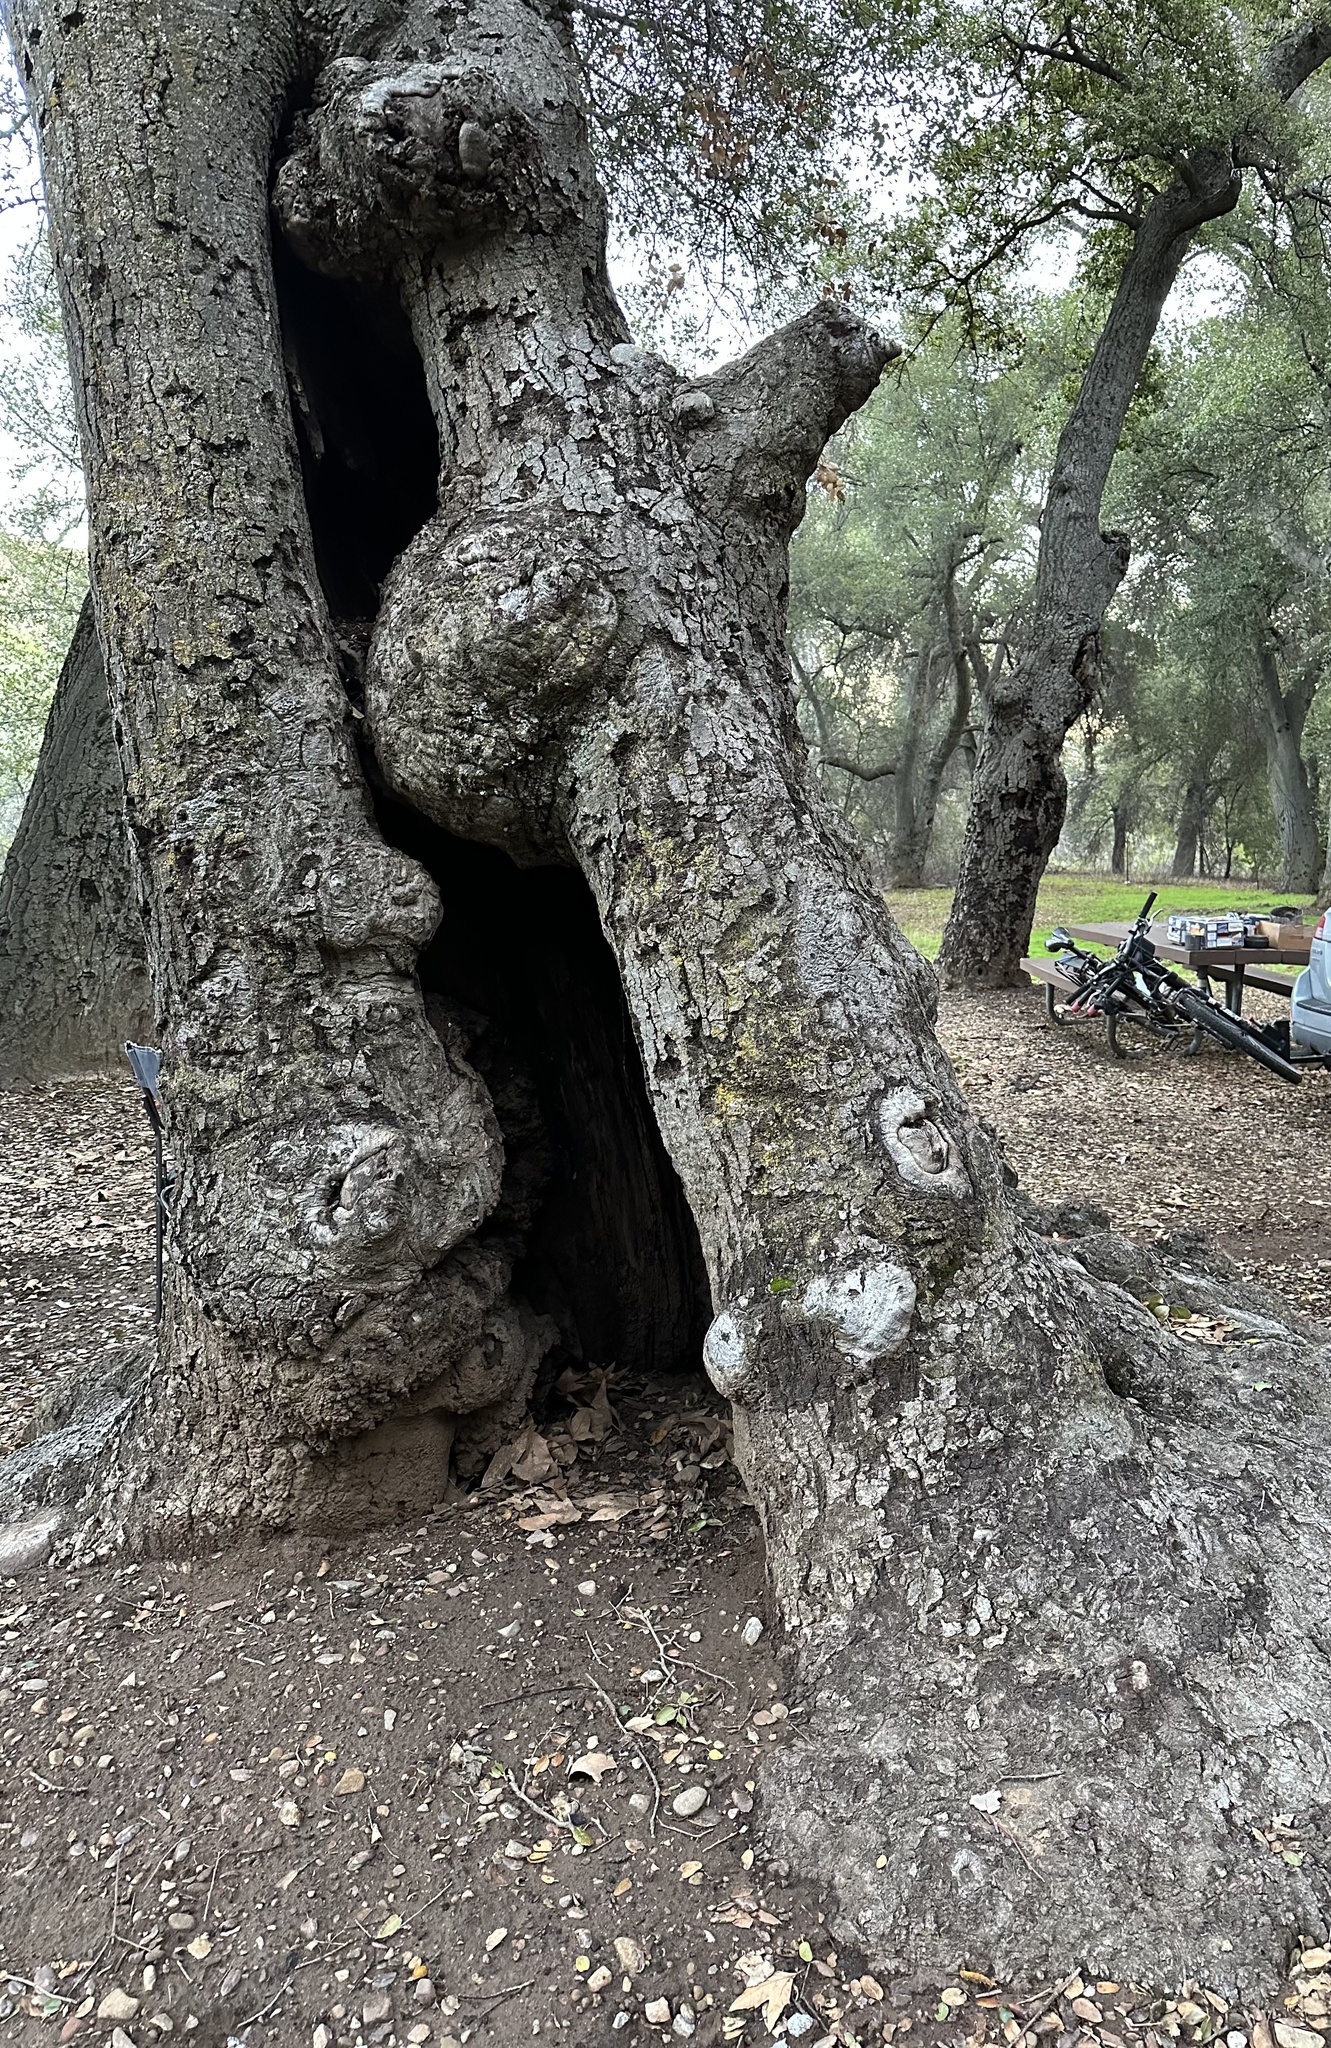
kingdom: Plantae
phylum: Tracheophyta
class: Magnoliopsida
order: Fagales
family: Fagaceae
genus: Quercus
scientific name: Quercus agrifolia
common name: California live oak
